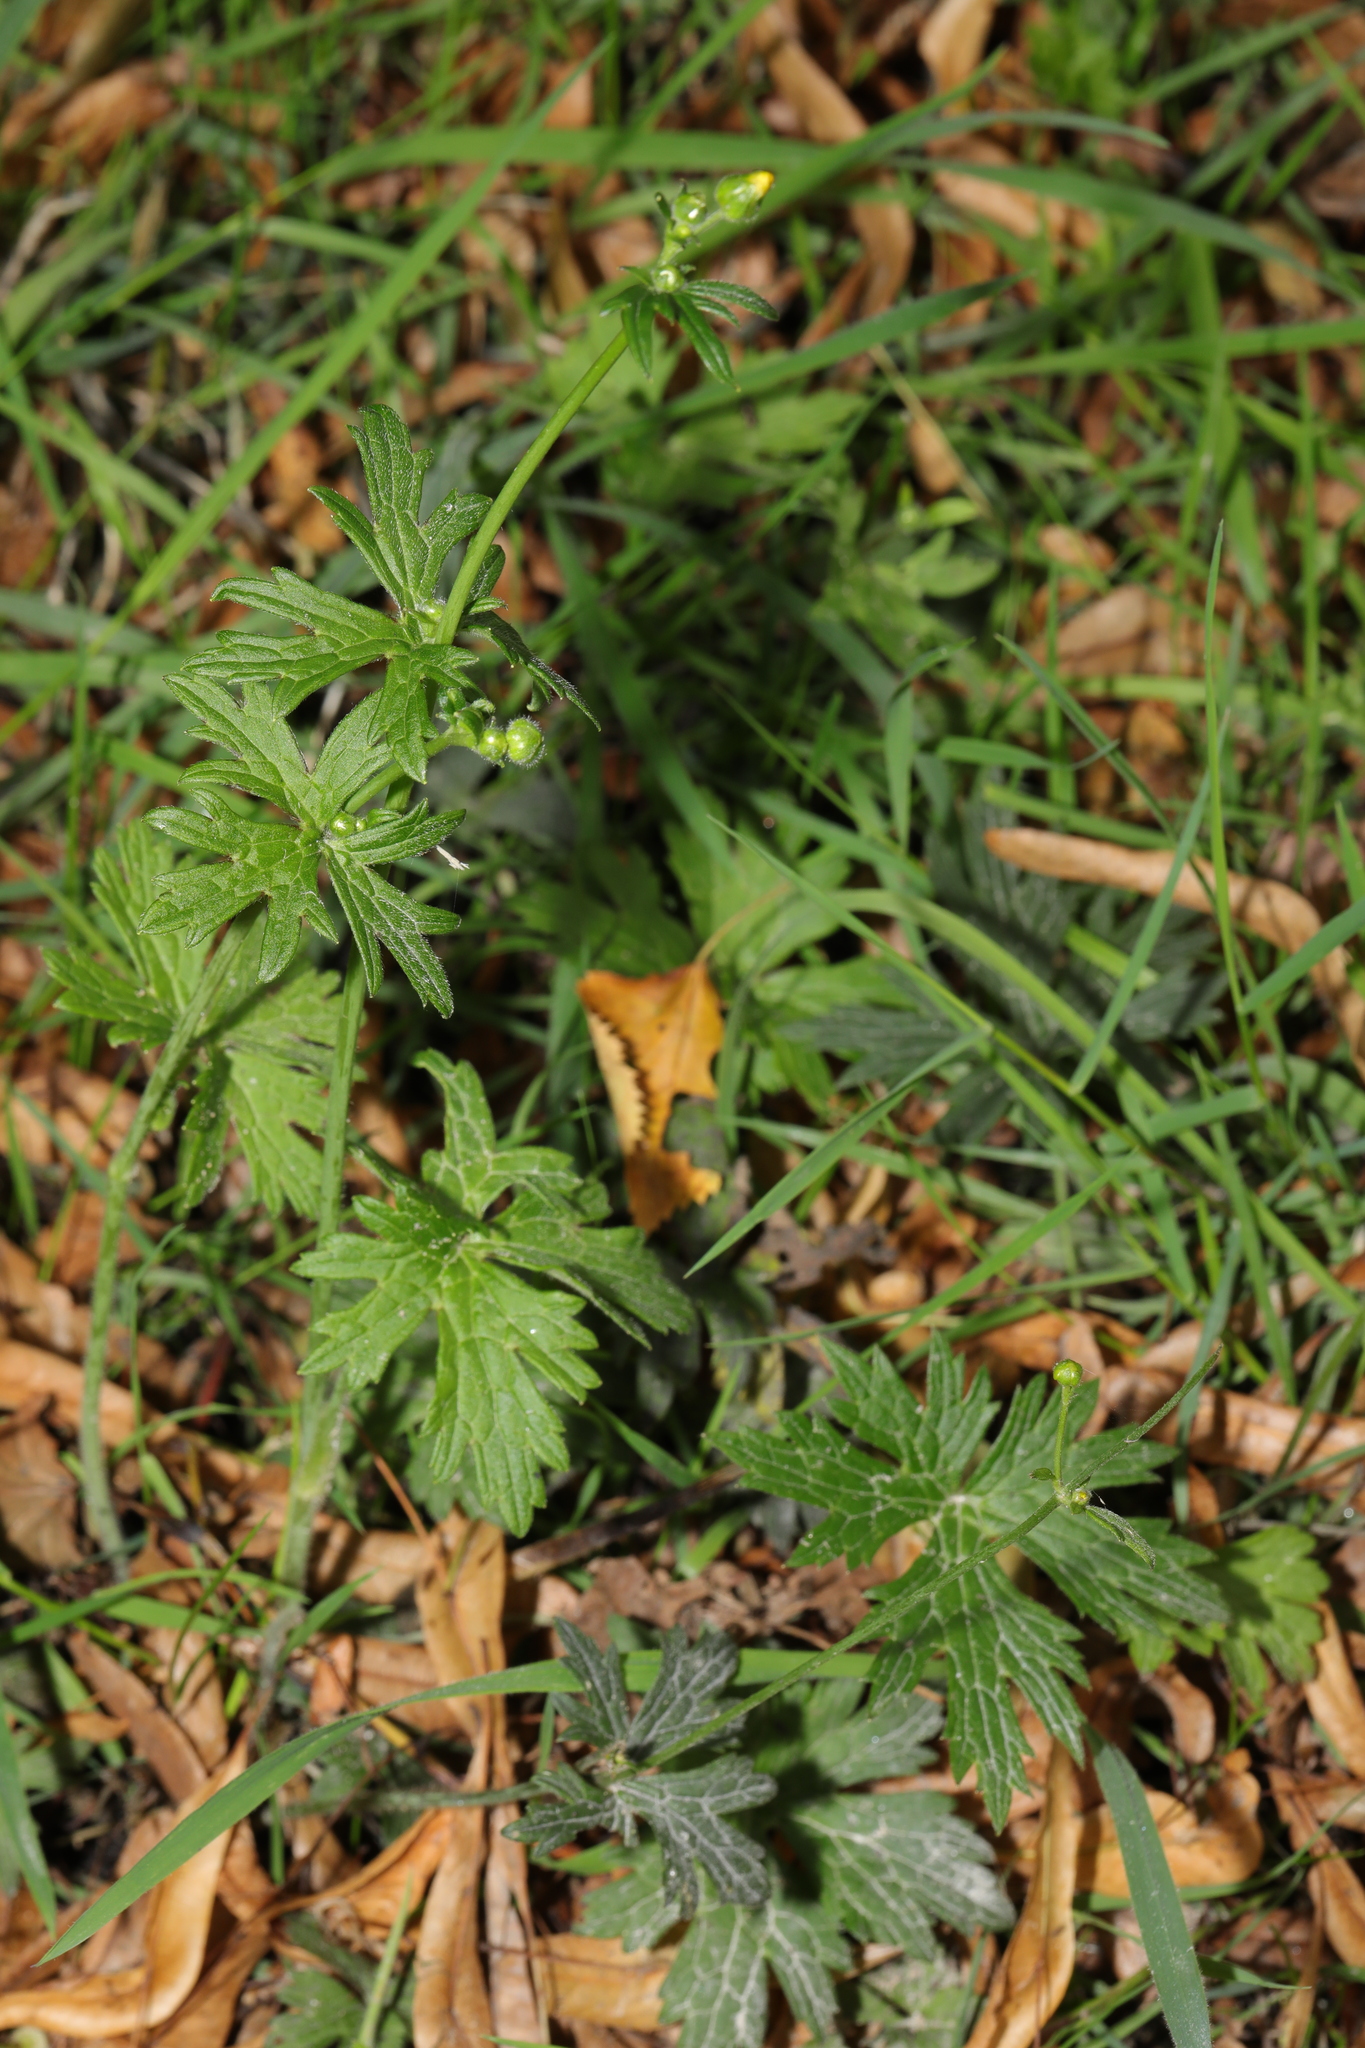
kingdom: Plantae
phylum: Tracheophyta
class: Magnoliopsida
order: Ranunculales
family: Ranunculaceae
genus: Ranunculus
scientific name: Ranunculus acris
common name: Meadow buttercup
